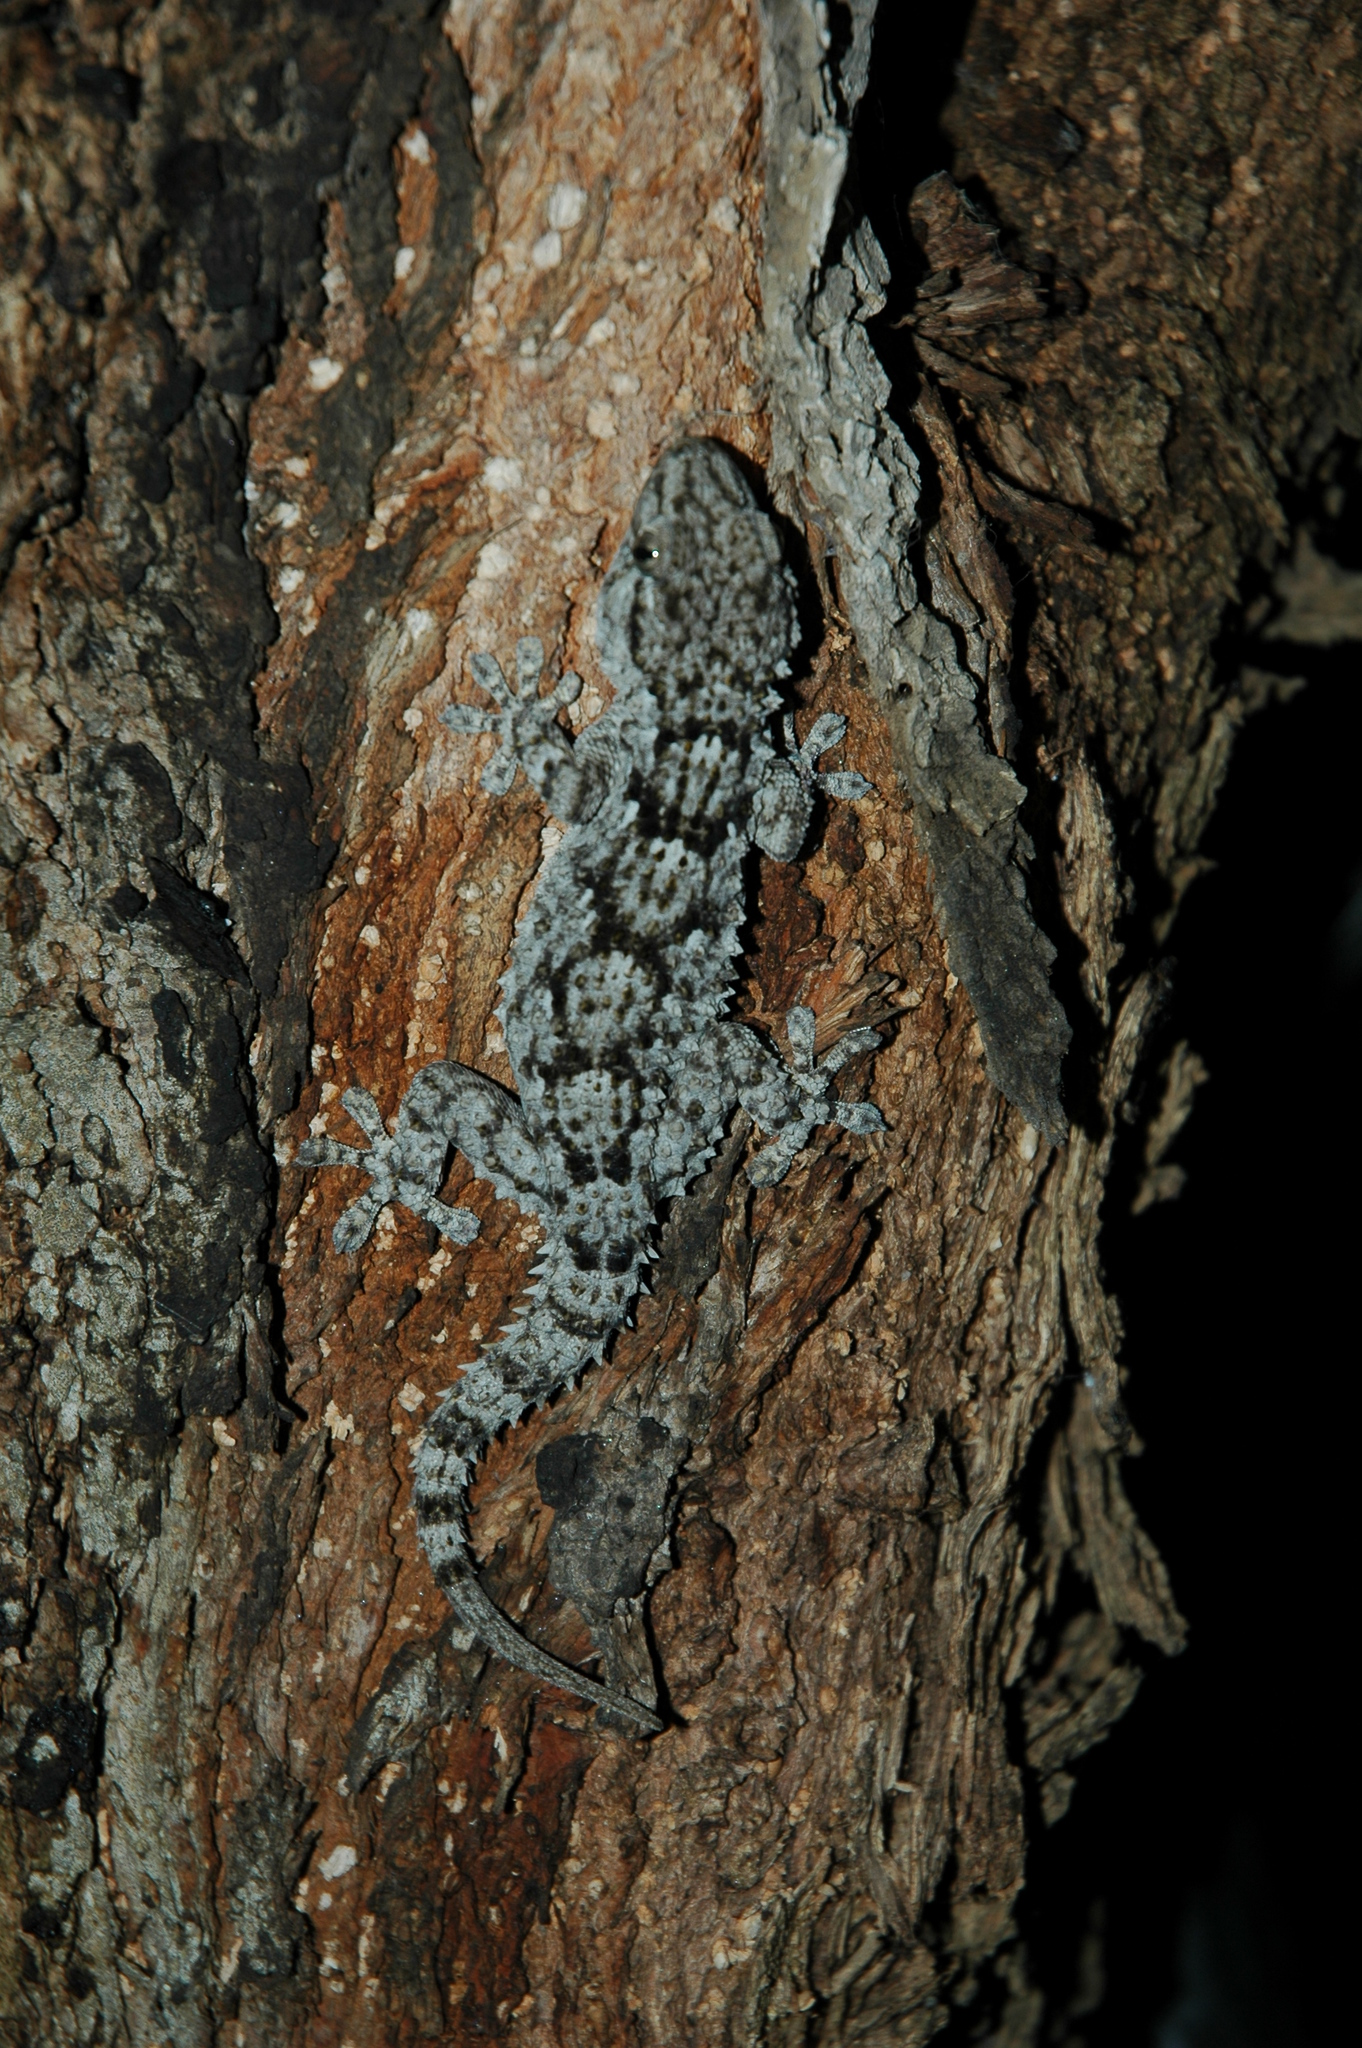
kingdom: Animalia
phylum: Chordata
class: Squamata
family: Phyllodactylidae
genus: Tarentola
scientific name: Tarentola mauritanica
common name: Moorish gecko
